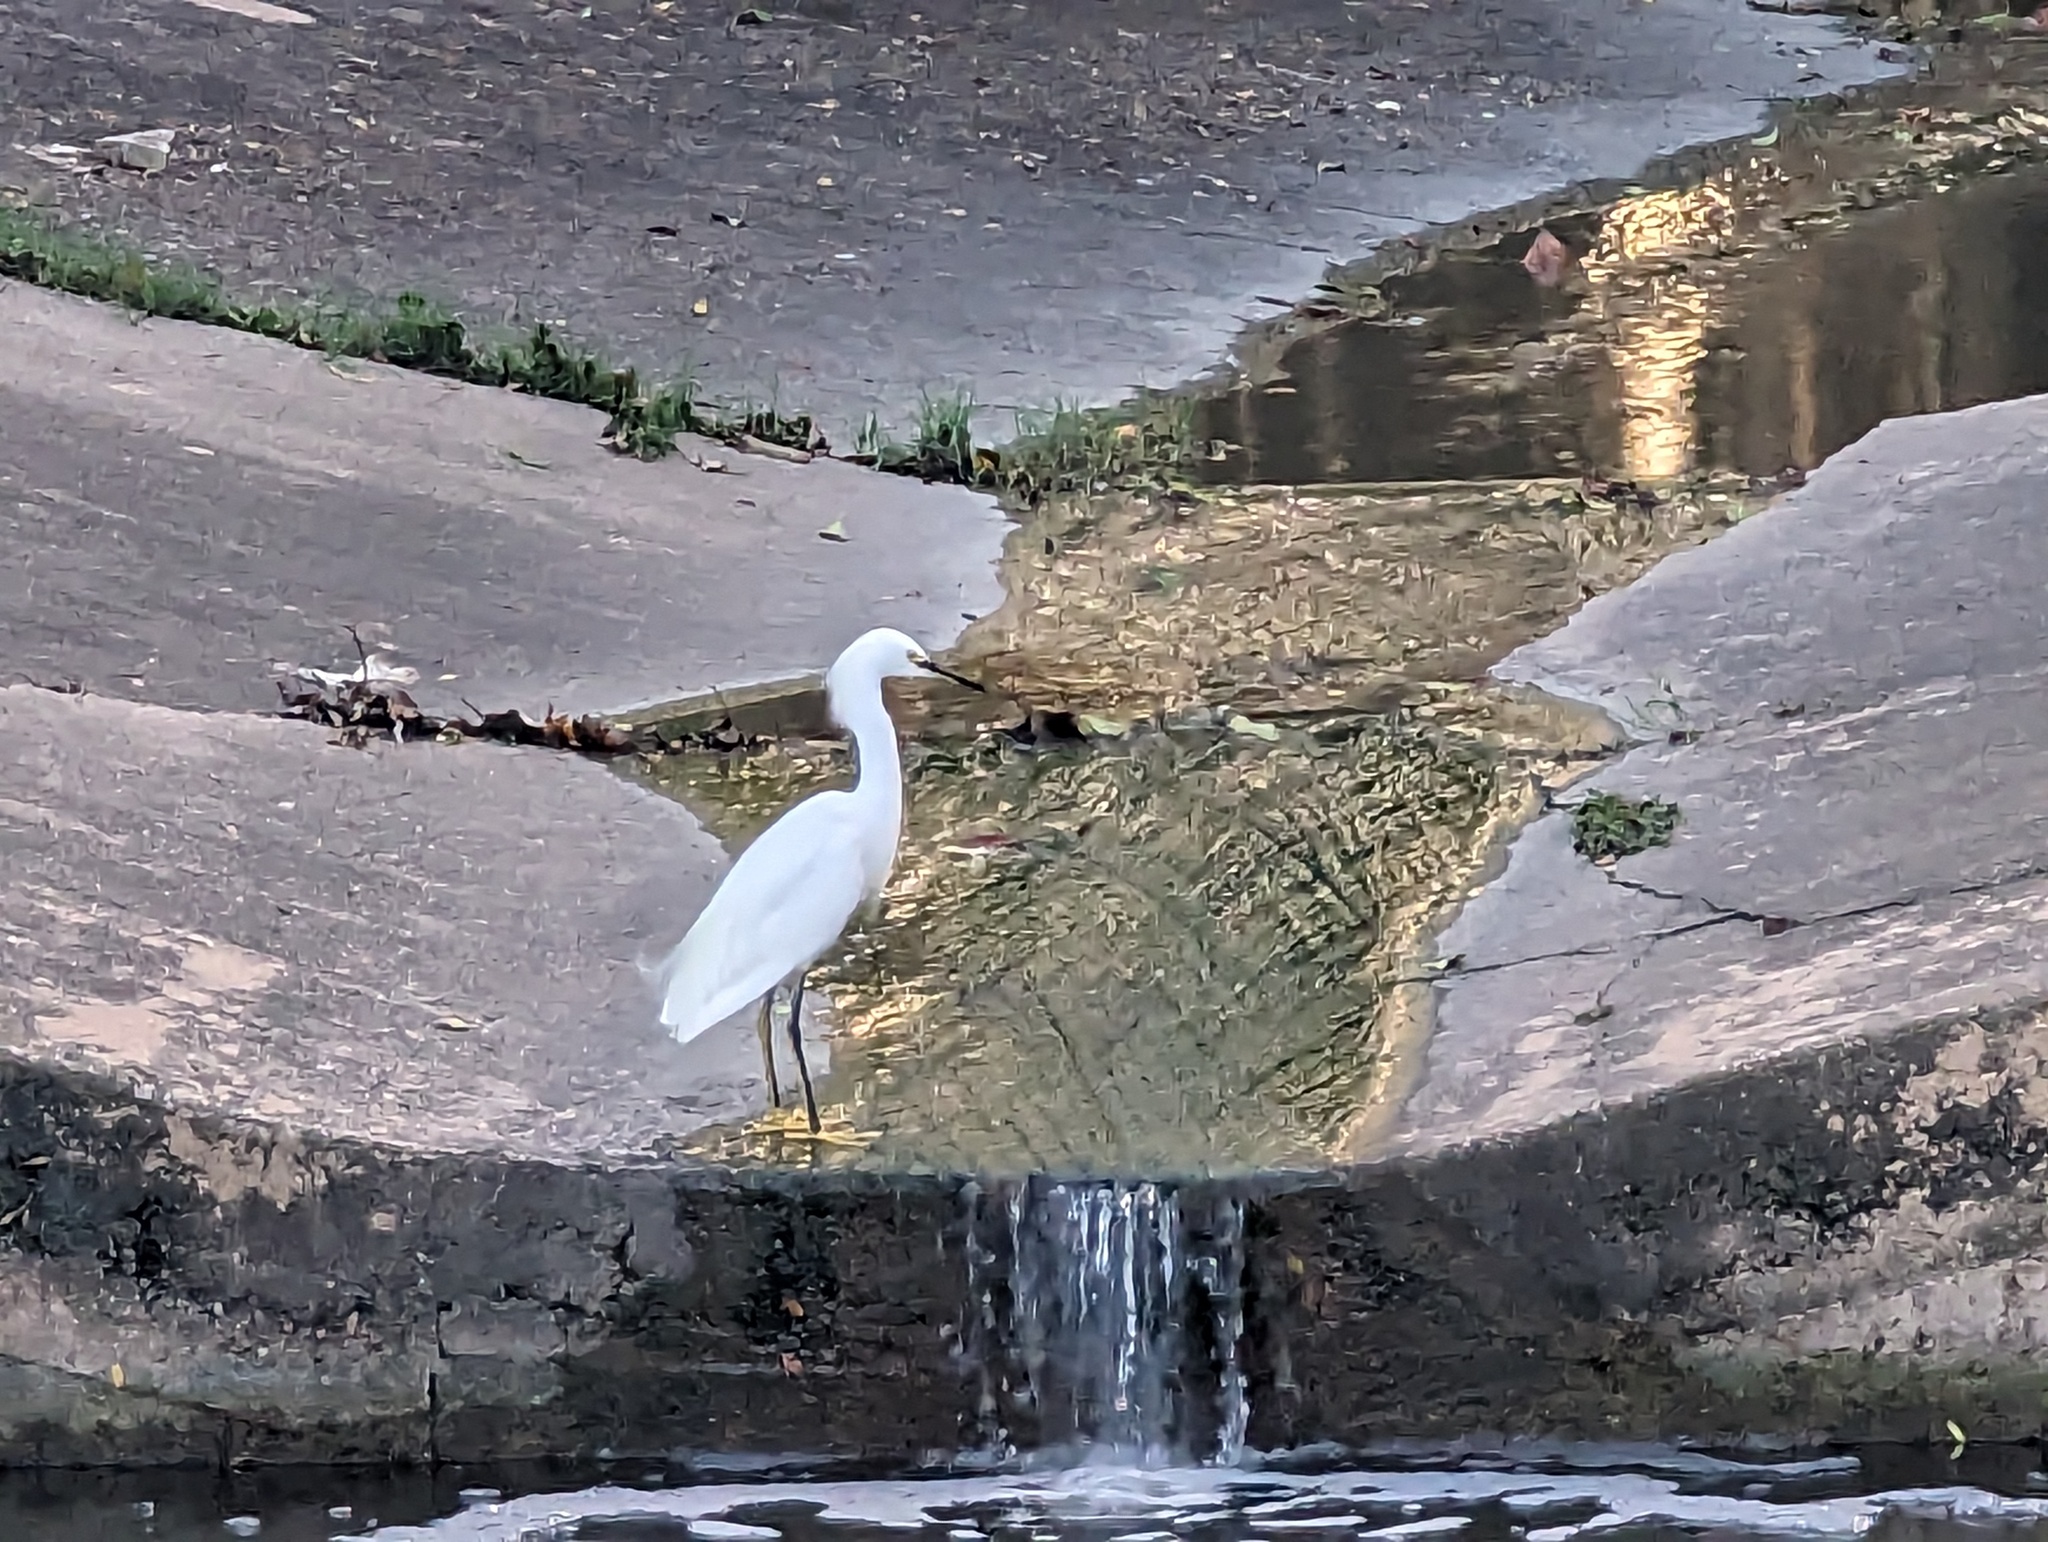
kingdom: Animalia
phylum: Chordata
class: Aves
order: Pelecaniformes
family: Ardeidae
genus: Egretta
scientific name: Egretta thula
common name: Snowy egret
